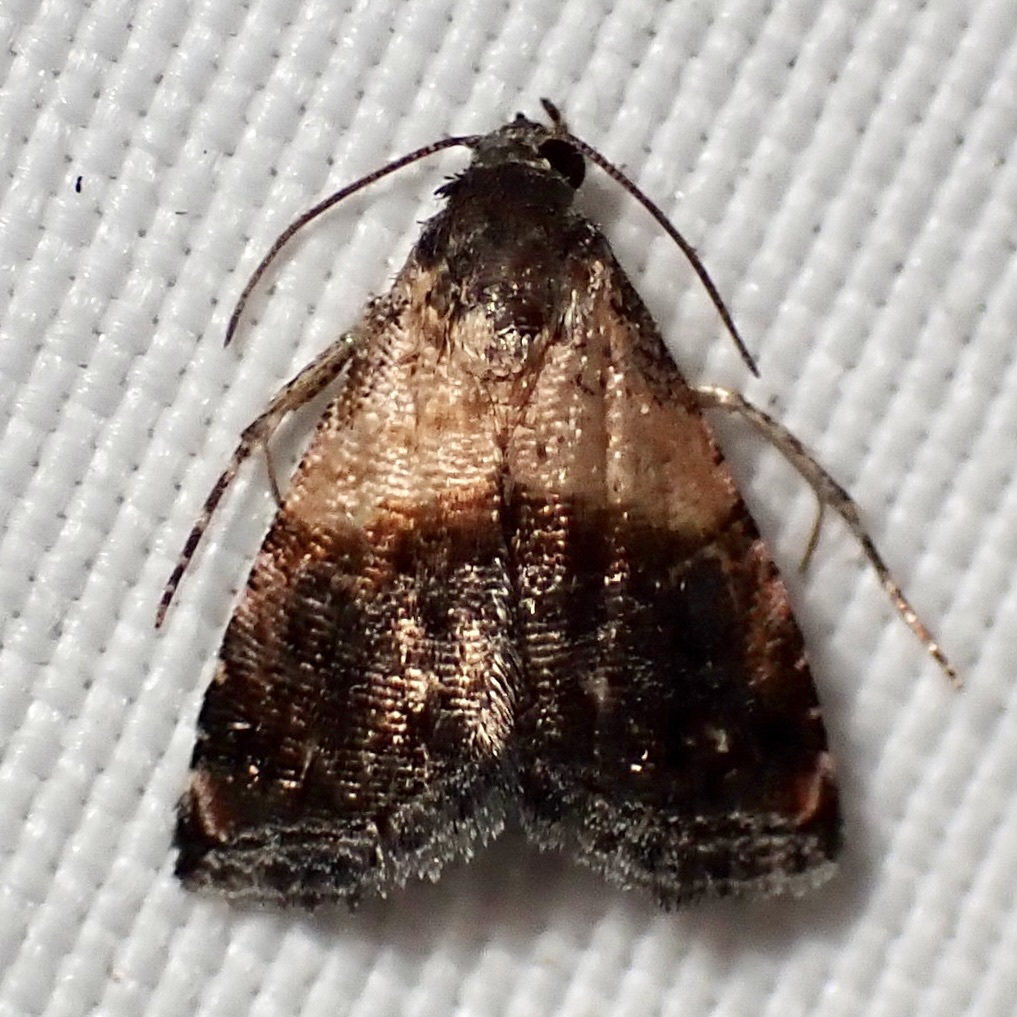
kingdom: Animalia
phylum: Arthropoda
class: Insecta
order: Lepidoptera
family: Noctuidae
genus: Tripudia
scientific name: Tripudia luda
